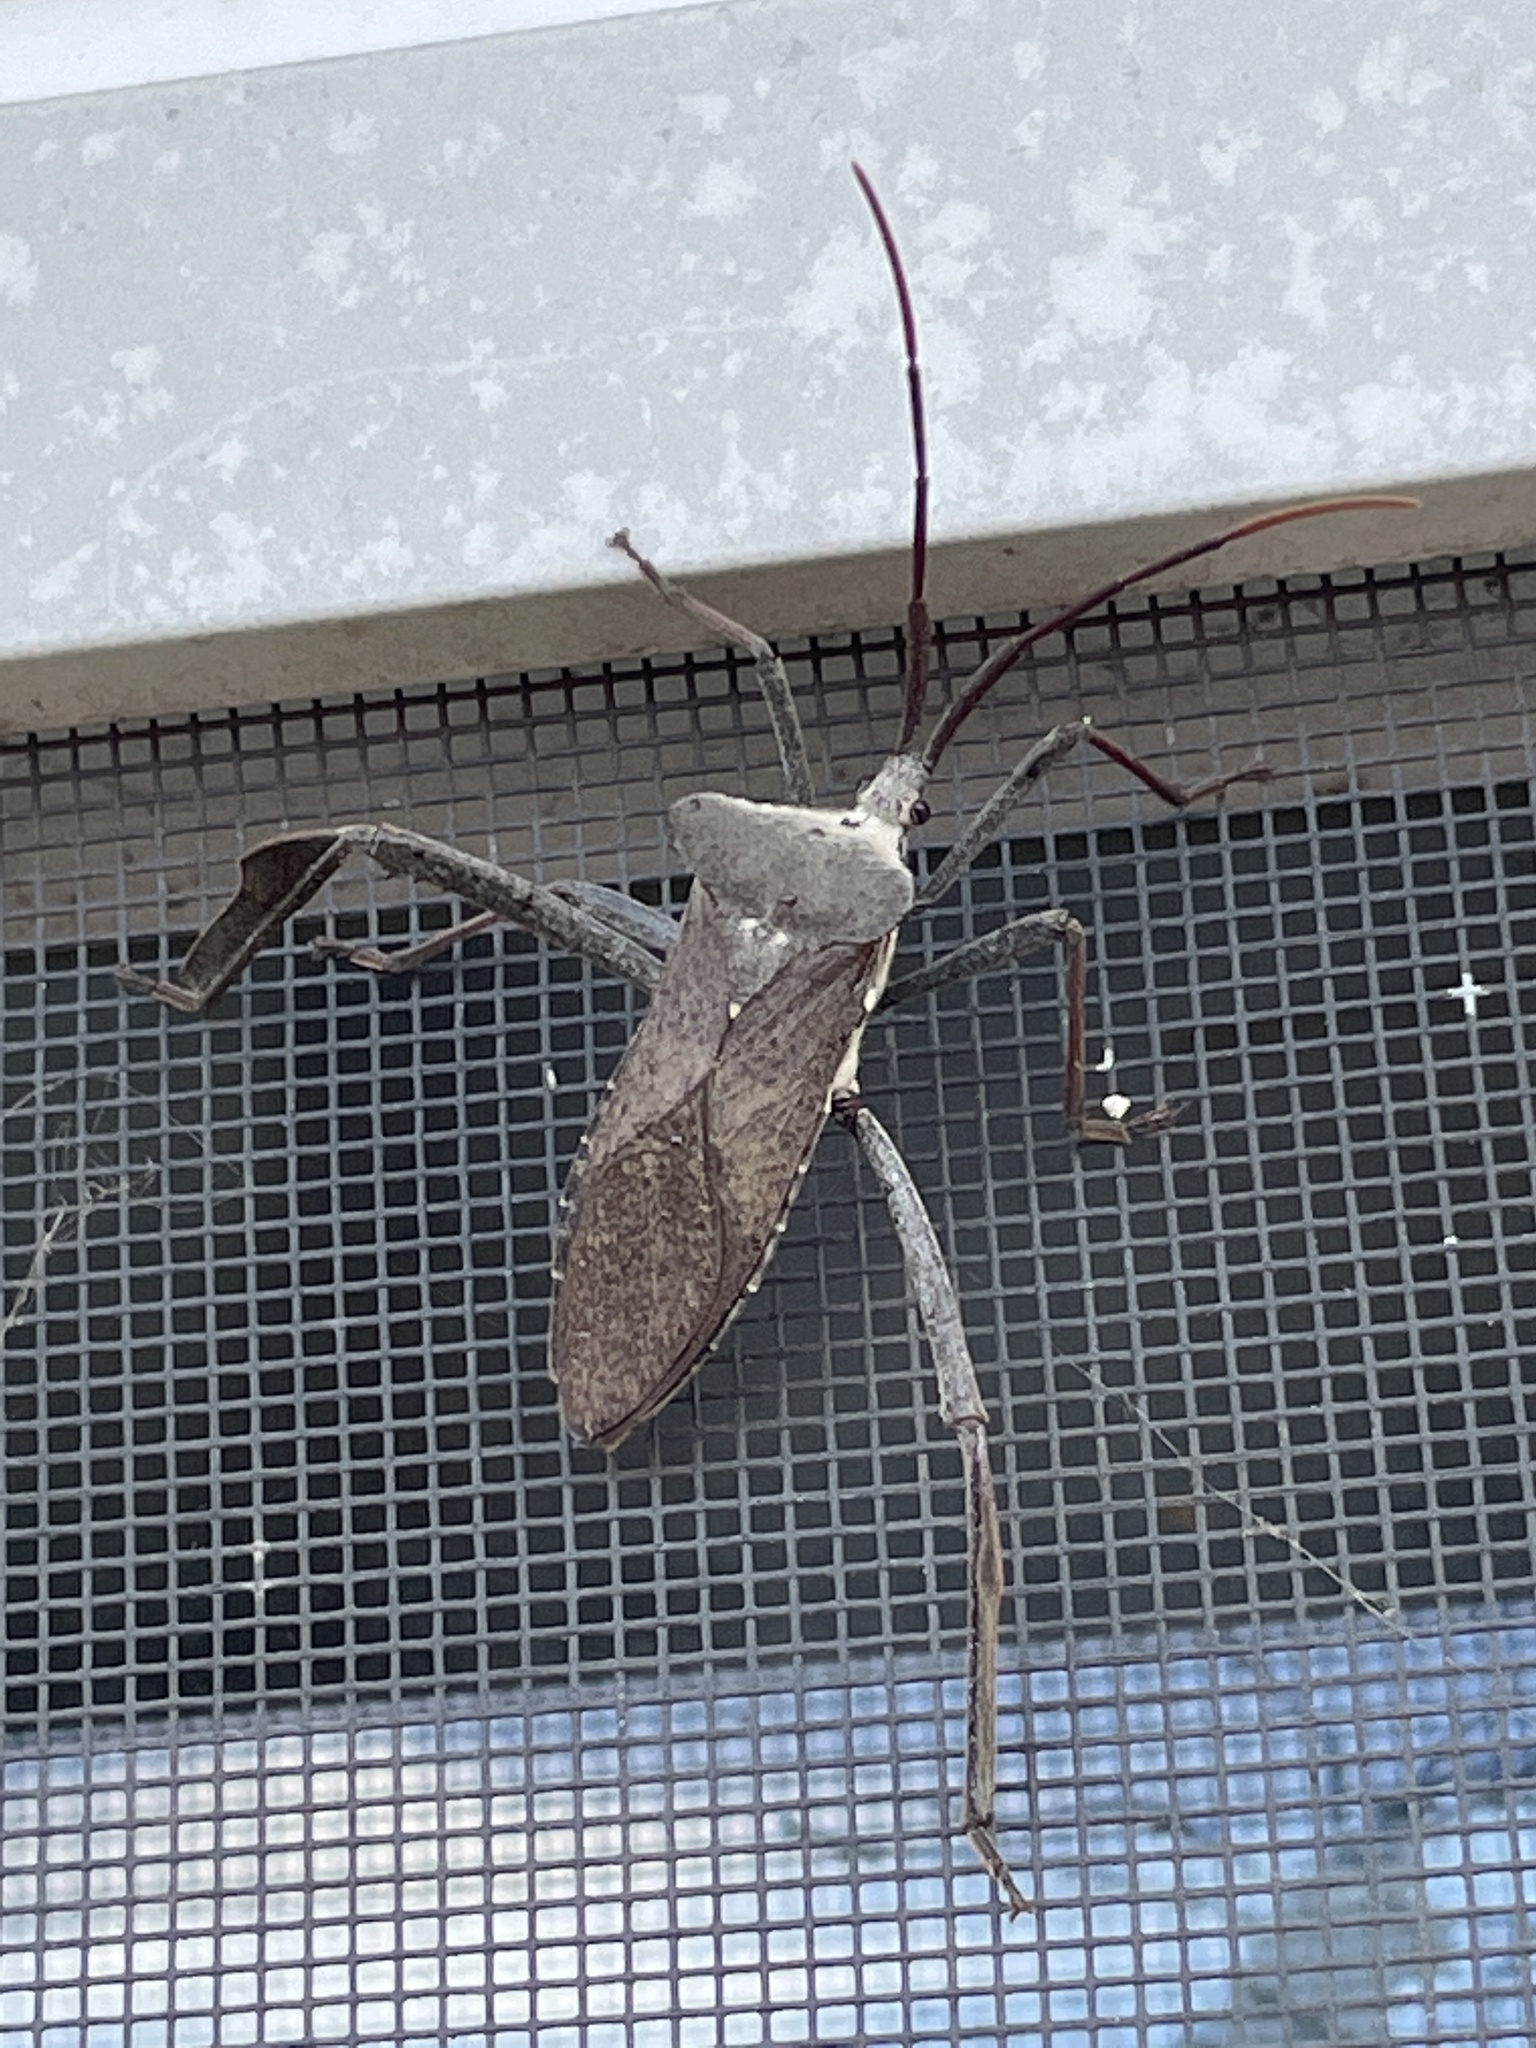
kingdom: Animalia
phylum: Arthropoda
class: Insecta
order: Hemiptera
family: Coreidae
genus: Acanthocephala
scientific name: Acanthocephala declivis
